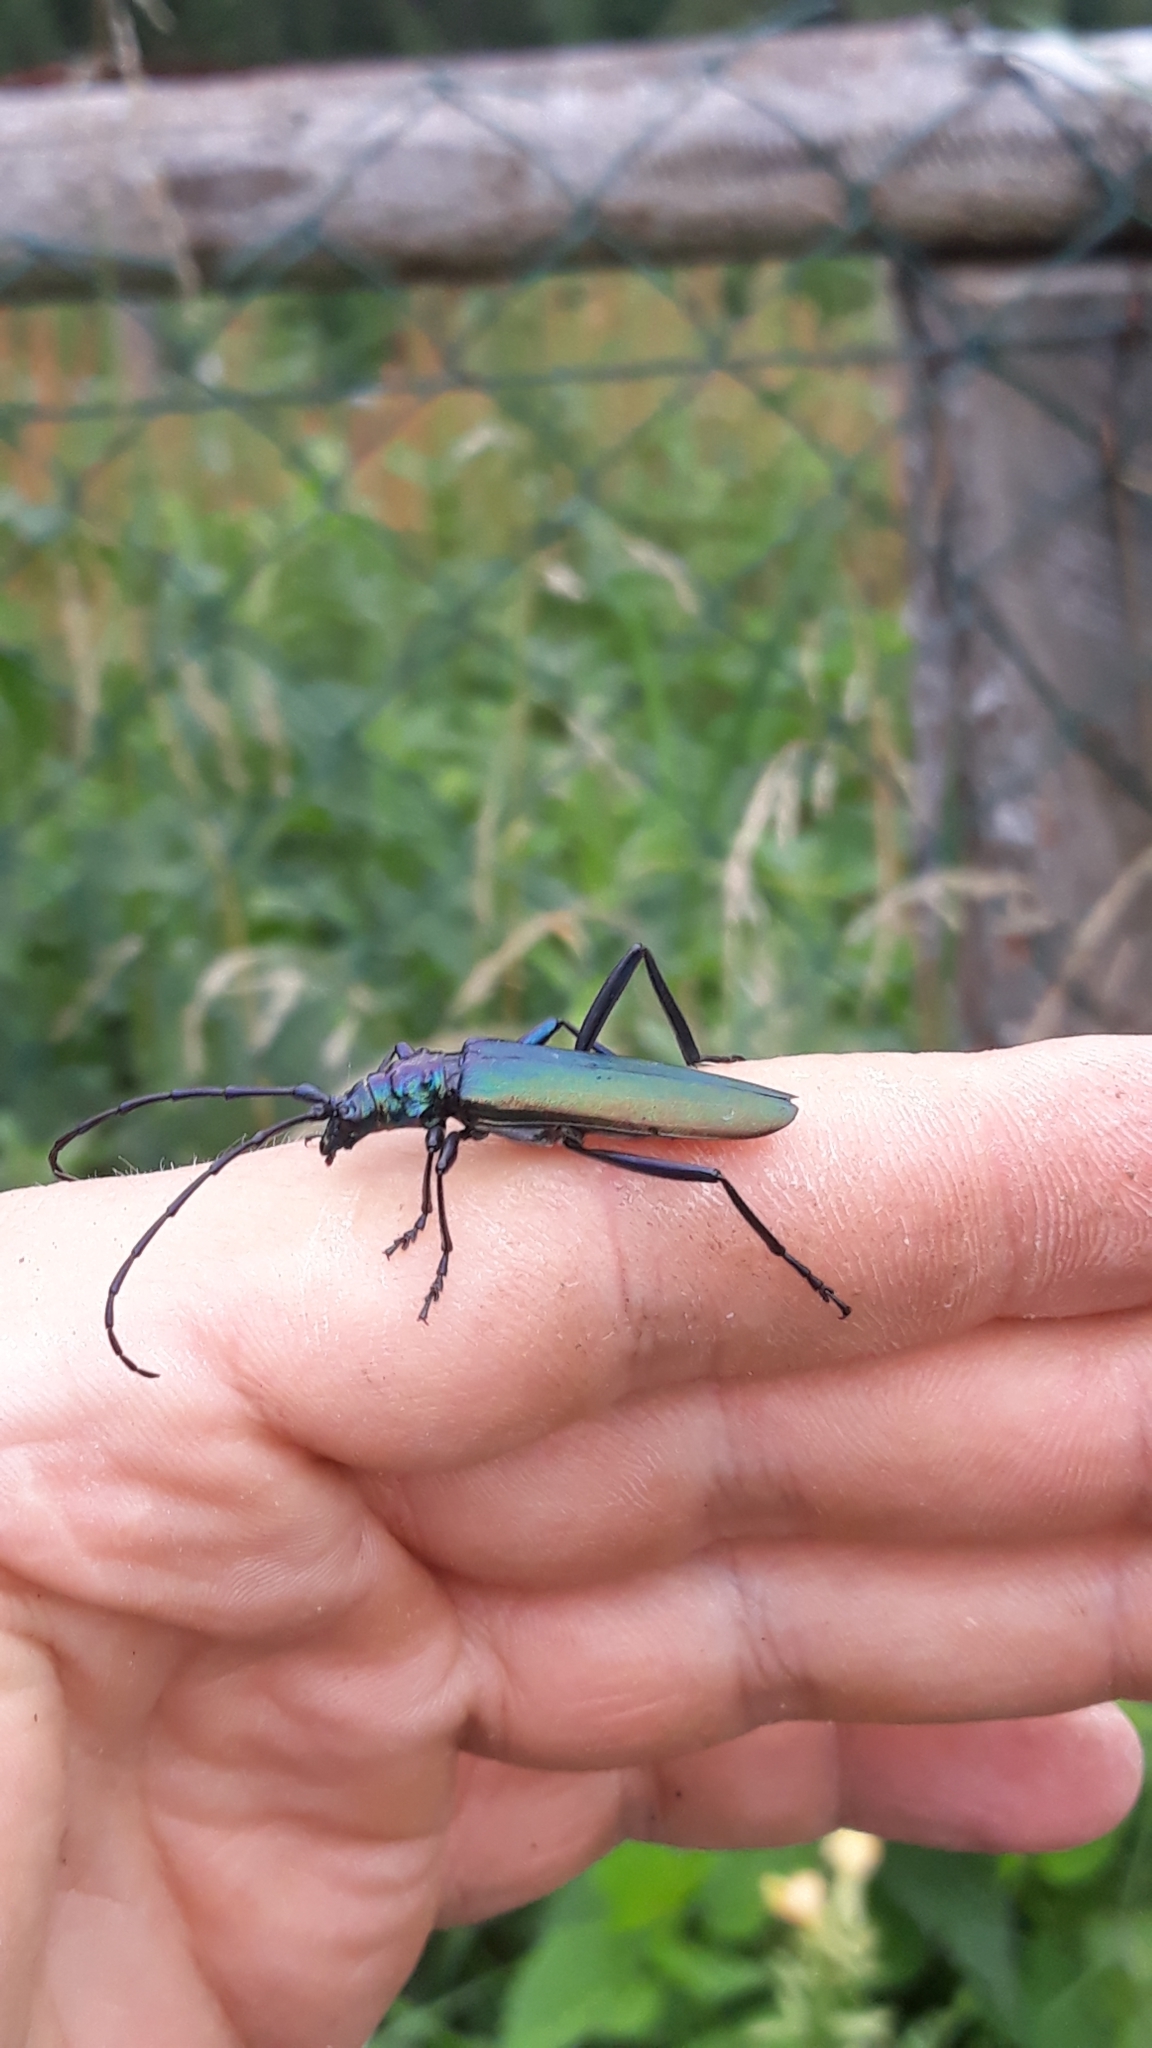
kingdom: Animalia
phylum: Arthropoda
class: Insecta
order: Coleoptera
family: Cerambycidae
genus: Aromia
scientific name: Aromia moschata
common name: Musk beetle
